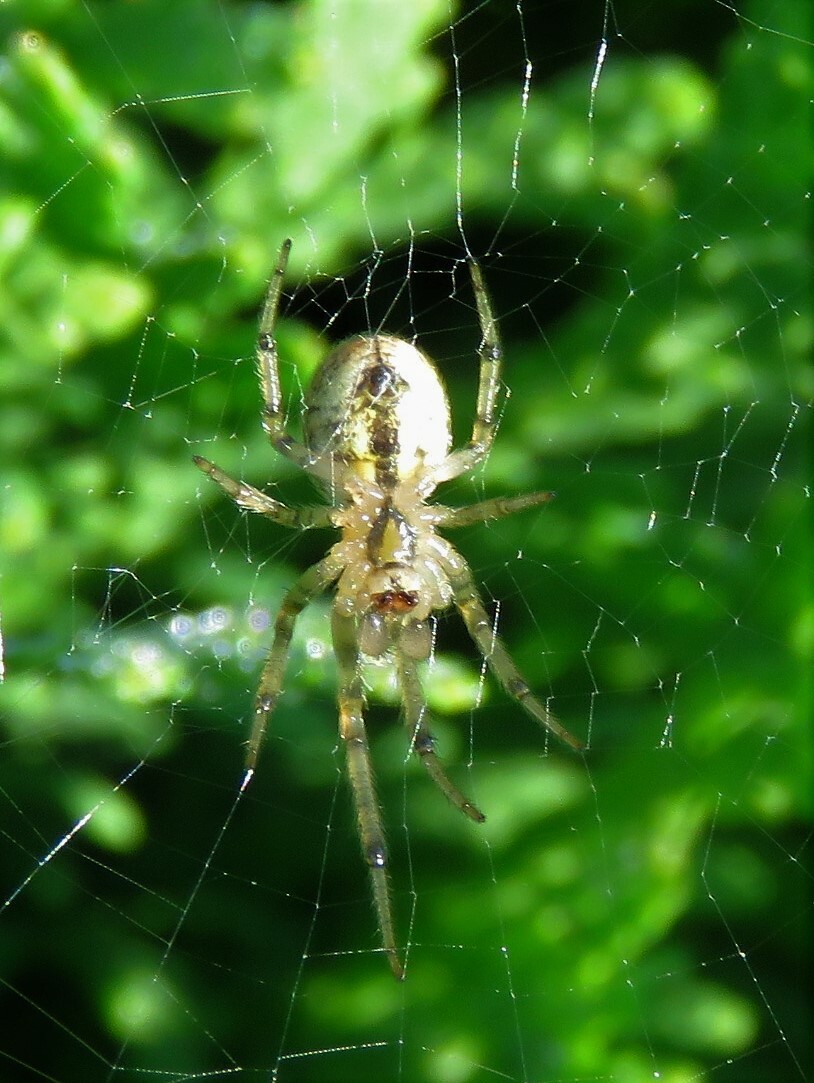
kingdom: Animalia
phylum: Arthropoda
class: Arachnida
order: Araneae
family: Araneidae
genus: Zygiella
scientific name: Zygiella atrica
